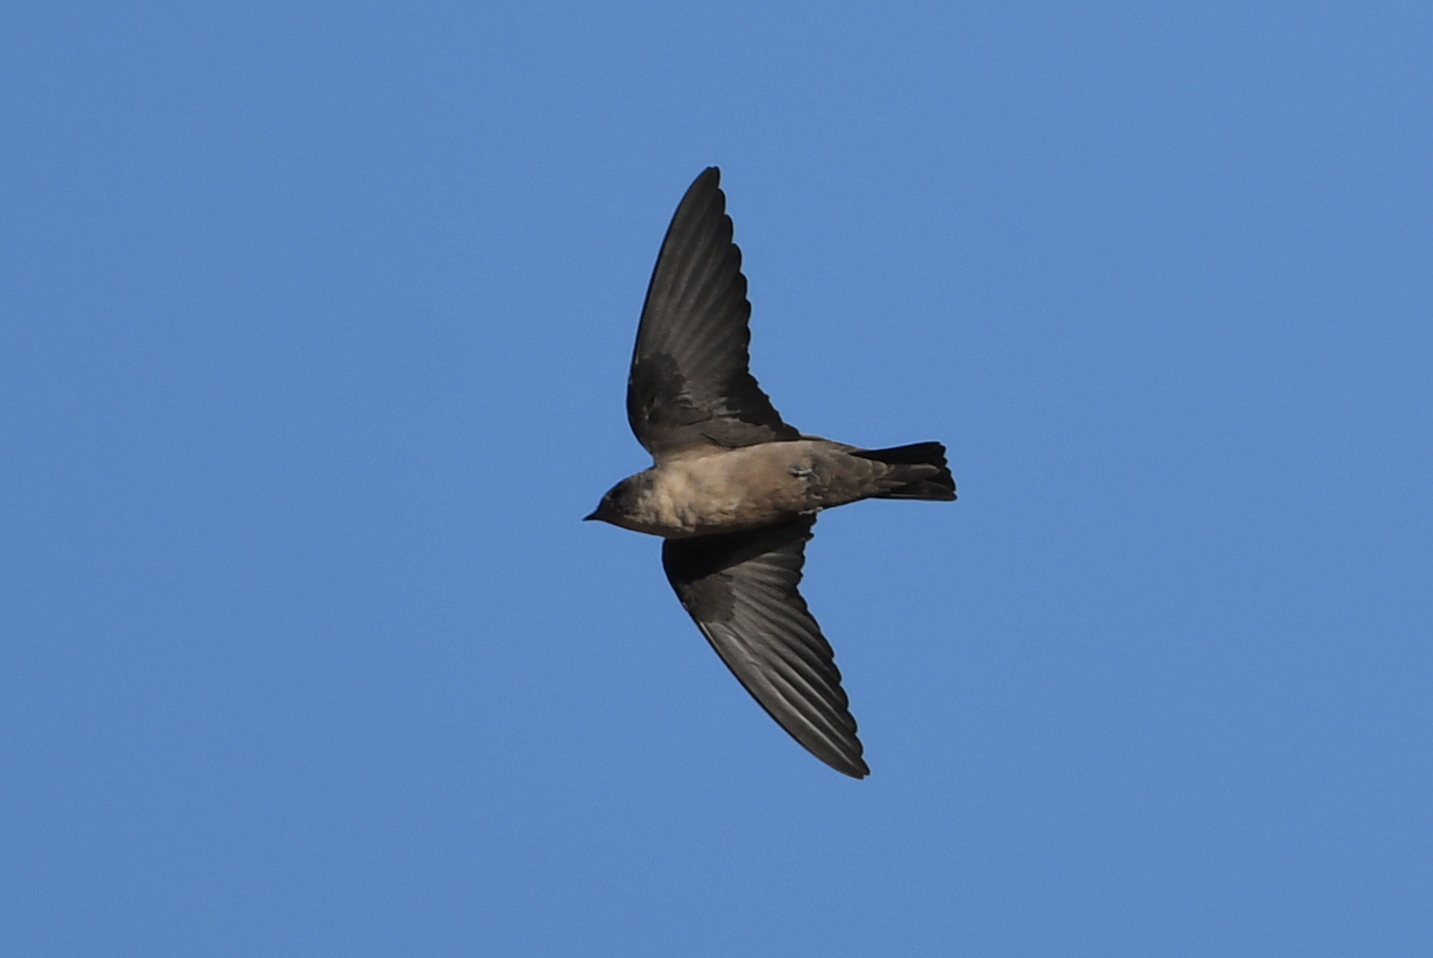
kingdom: Animalia
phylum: Chordata
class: Aves
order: Passeriformes
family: Hirundinidae
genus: Ptyonoprogne
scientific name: Ptyonoprogne rupestris
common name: Eurasian crag martin
